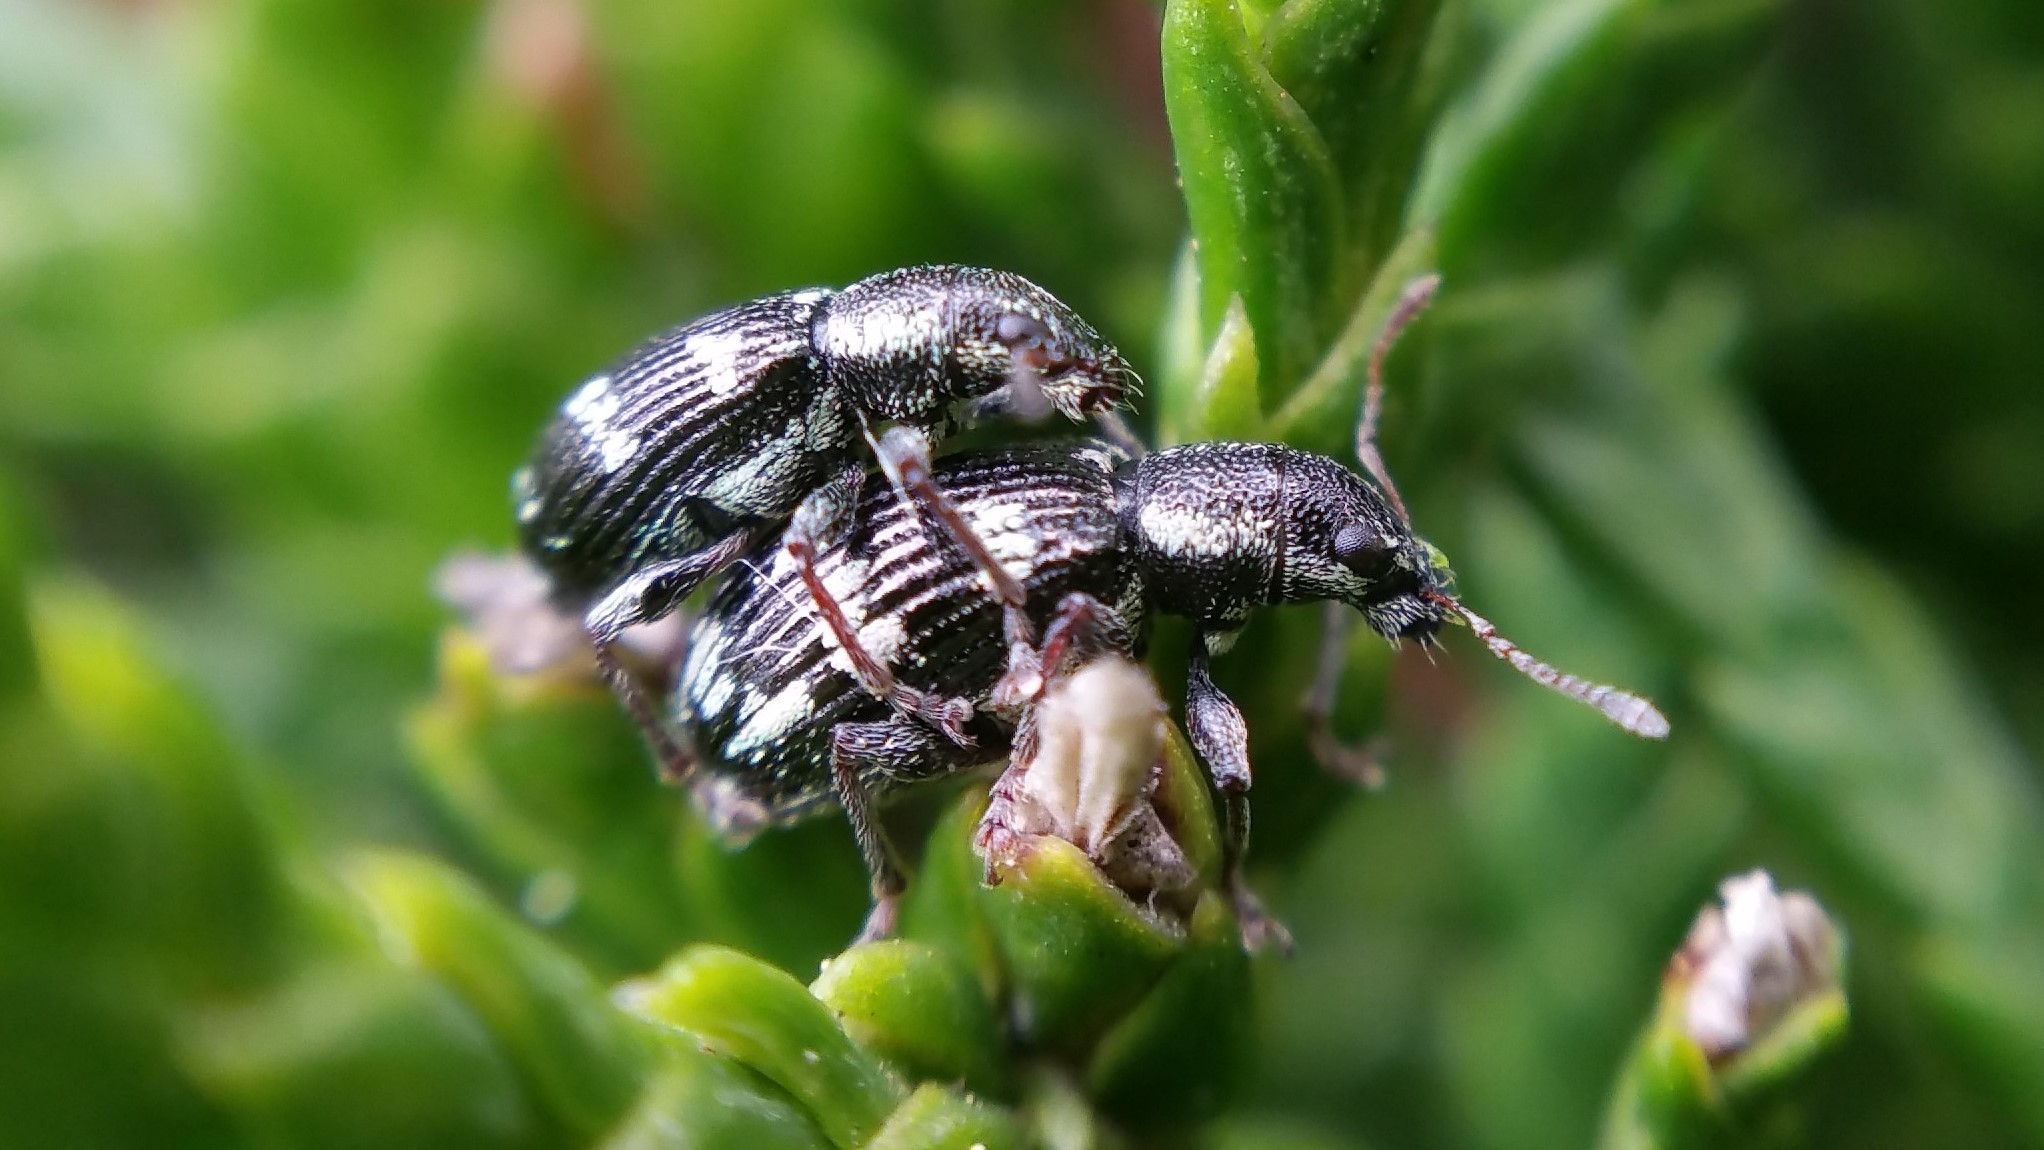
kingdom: Animalia
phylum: Arthropoda
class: Insecta
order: Coleoptera
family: Curculionidae
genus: Polydrusus
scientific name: Polydrusus picus
